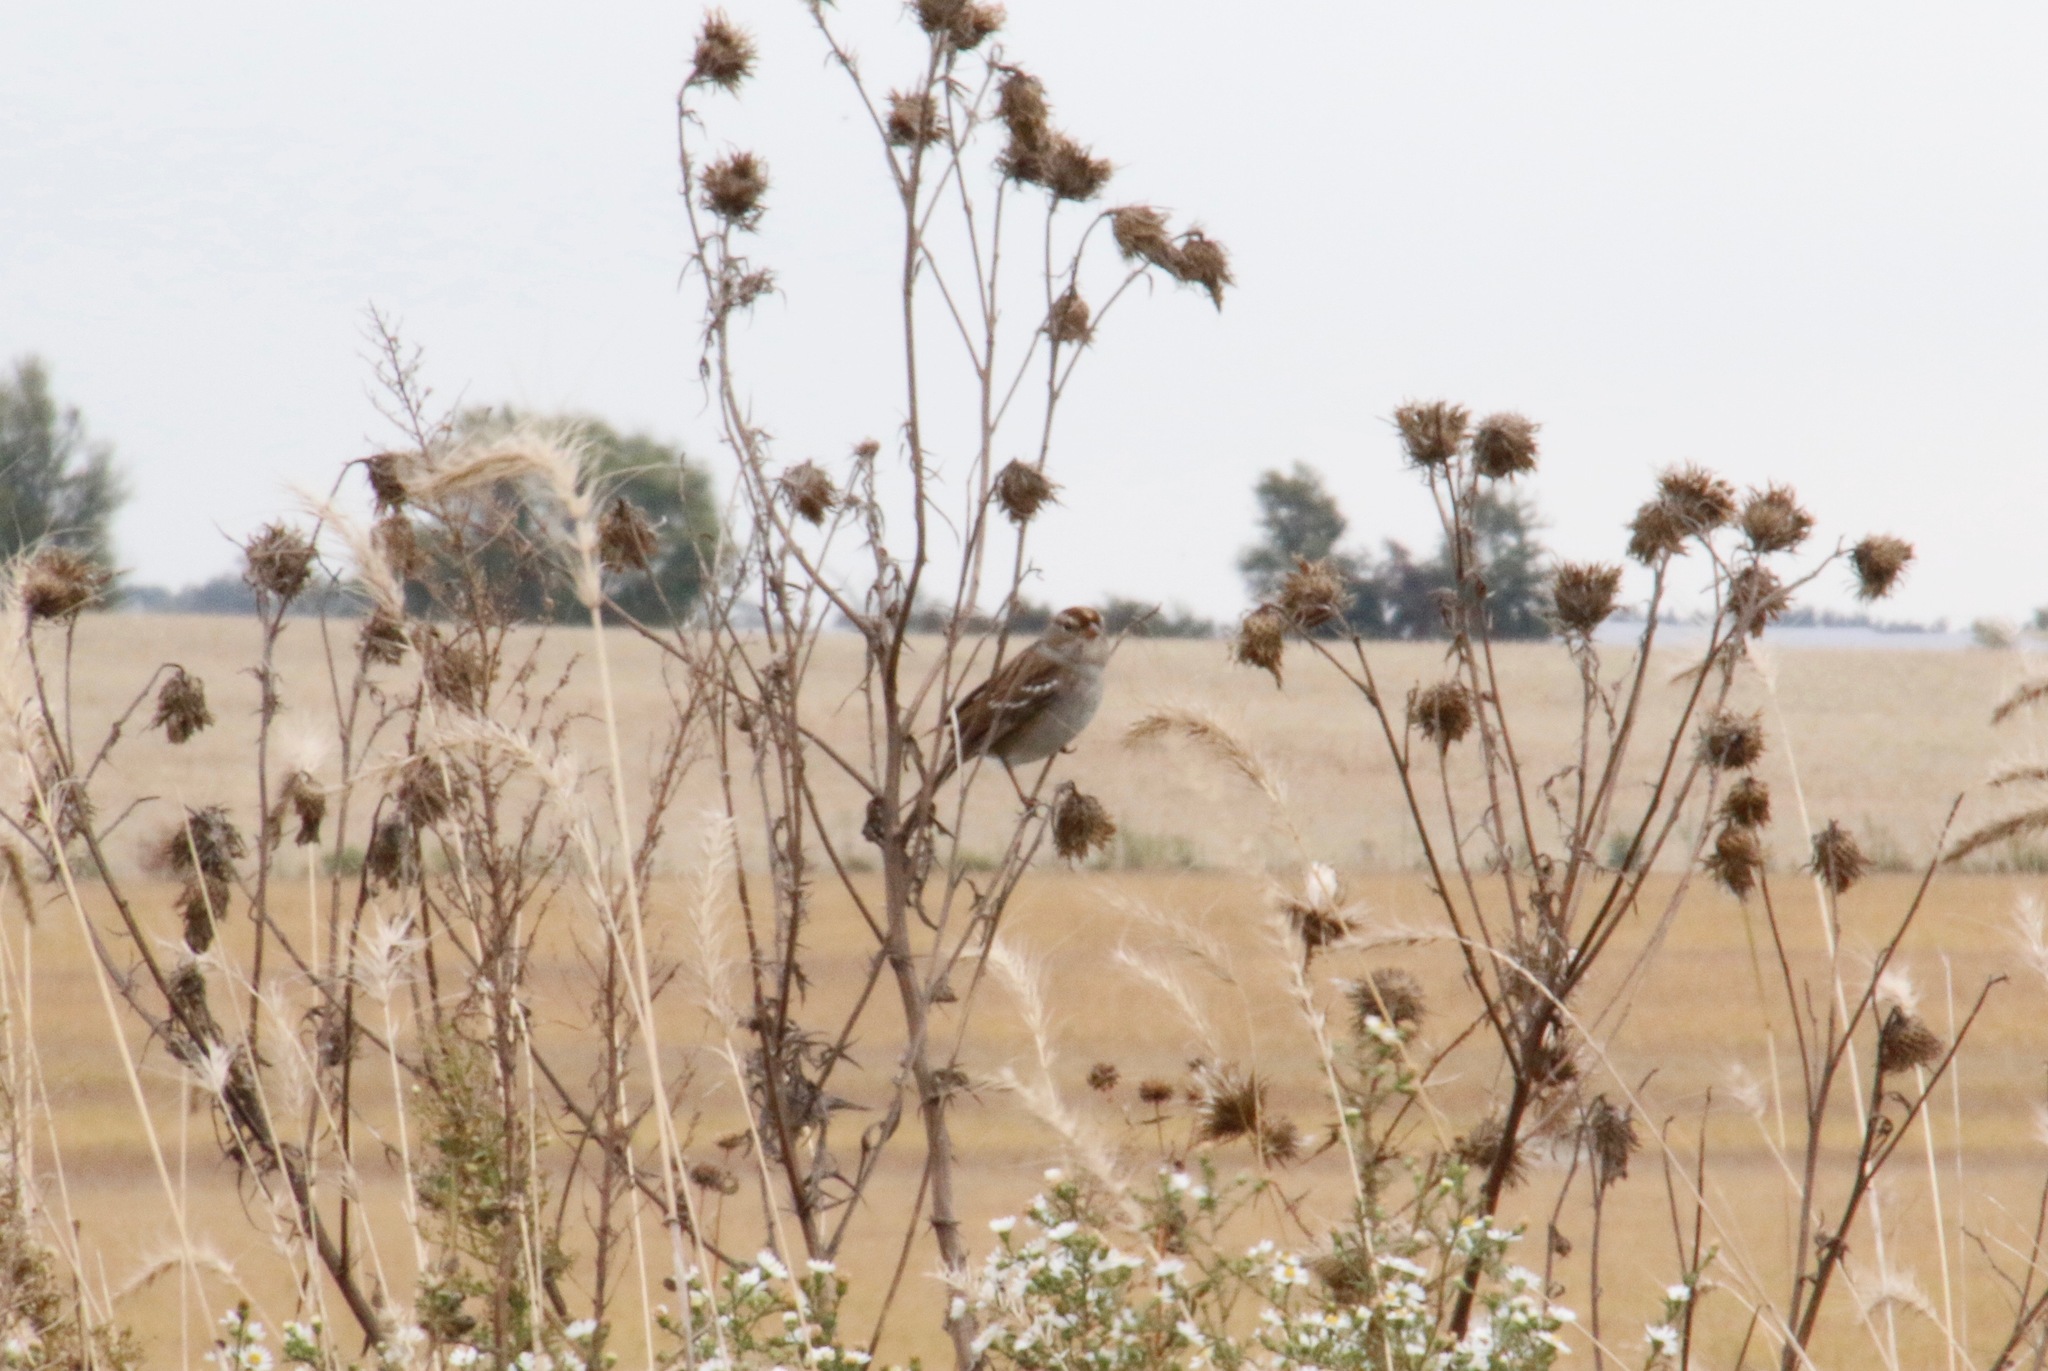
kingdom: Animalia
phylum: Chordata
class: Aves
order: Passeriformes
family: Passerellidae
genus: Zonotrichia
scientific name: Zonotrichia leucophrys
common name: White-crowned sparrow
